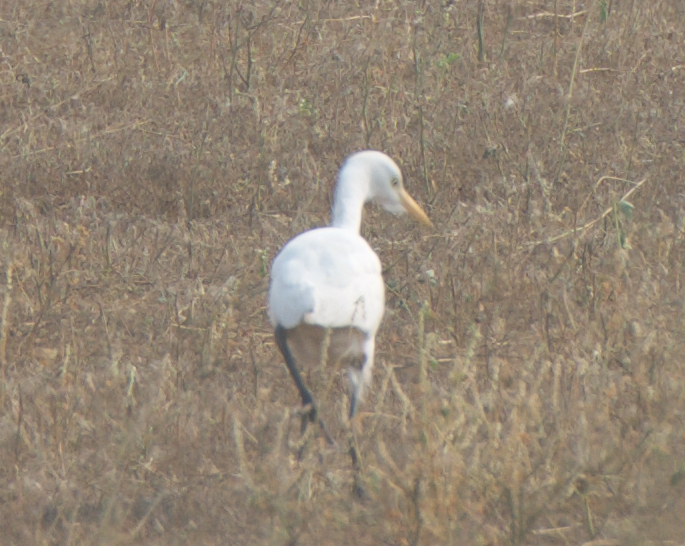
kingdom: Animalia
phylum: Chordata
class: Aves
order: Pelecaniformes
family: Ardeidae
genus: Bubulcus
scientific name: Bubulcus ibis
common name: Cattle egret
